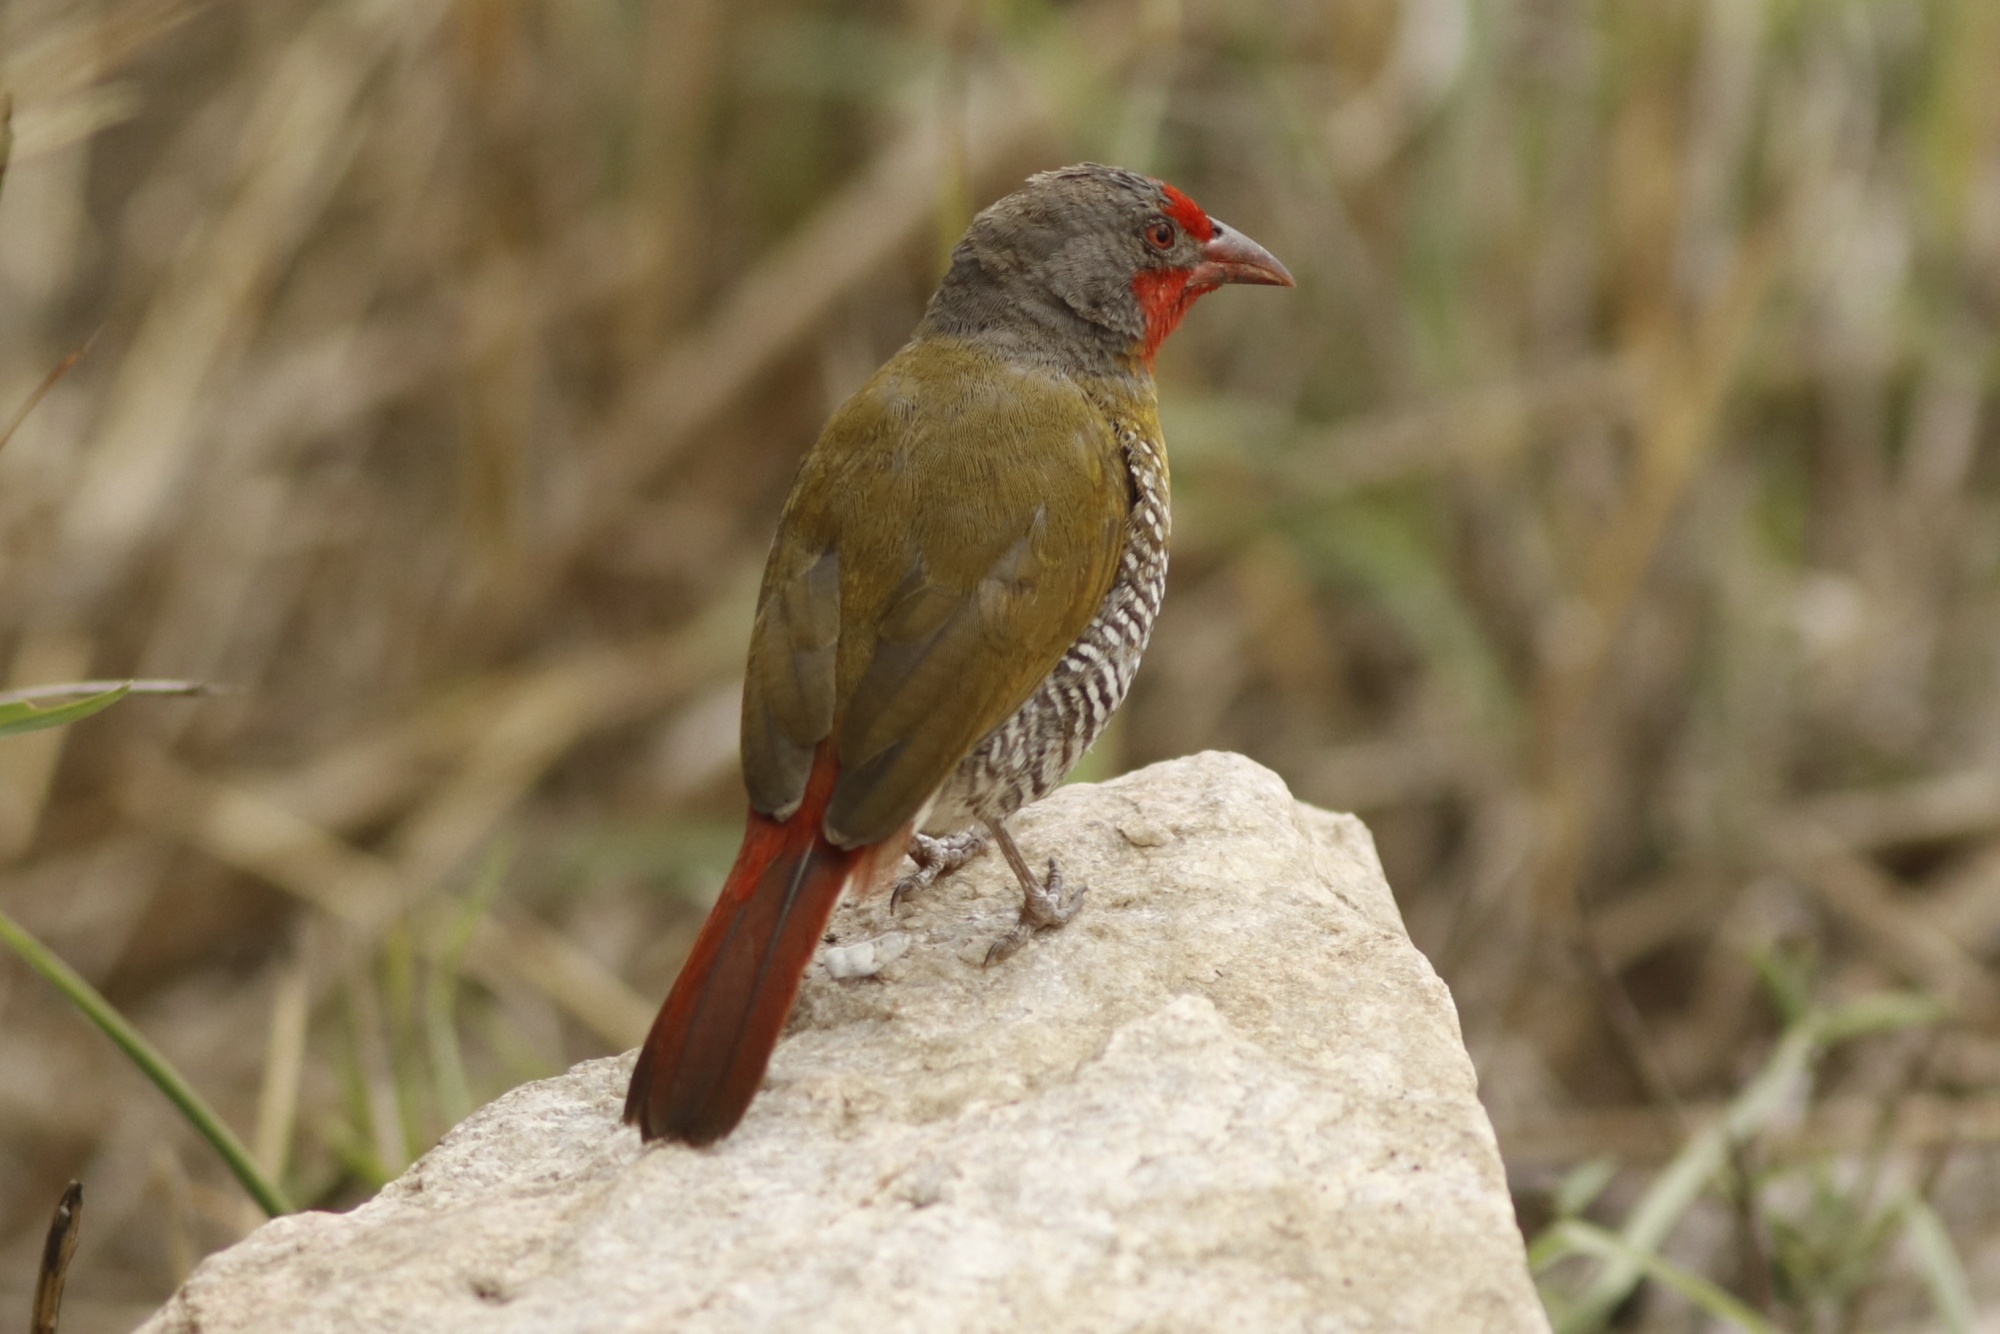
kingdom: Animalia
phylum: Chordata
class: Aves
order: Passeriformes
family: Estrildidae
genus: Pytilia
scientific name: Pytilia melba
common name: Green-winged pytilia
